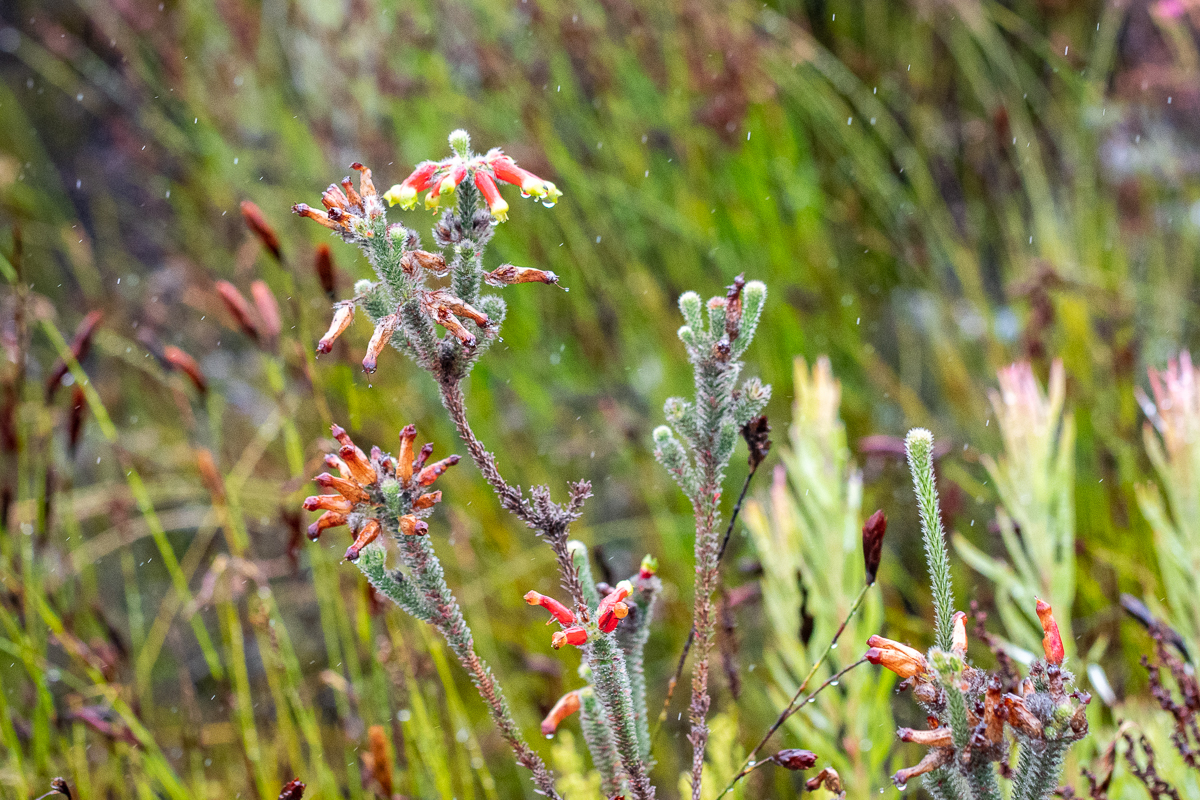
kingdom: Plantae
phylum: Tracheophyta
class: Magnoliopsida
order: Ericales
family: Ericaceae
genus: Erica
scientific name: Erica massonii
